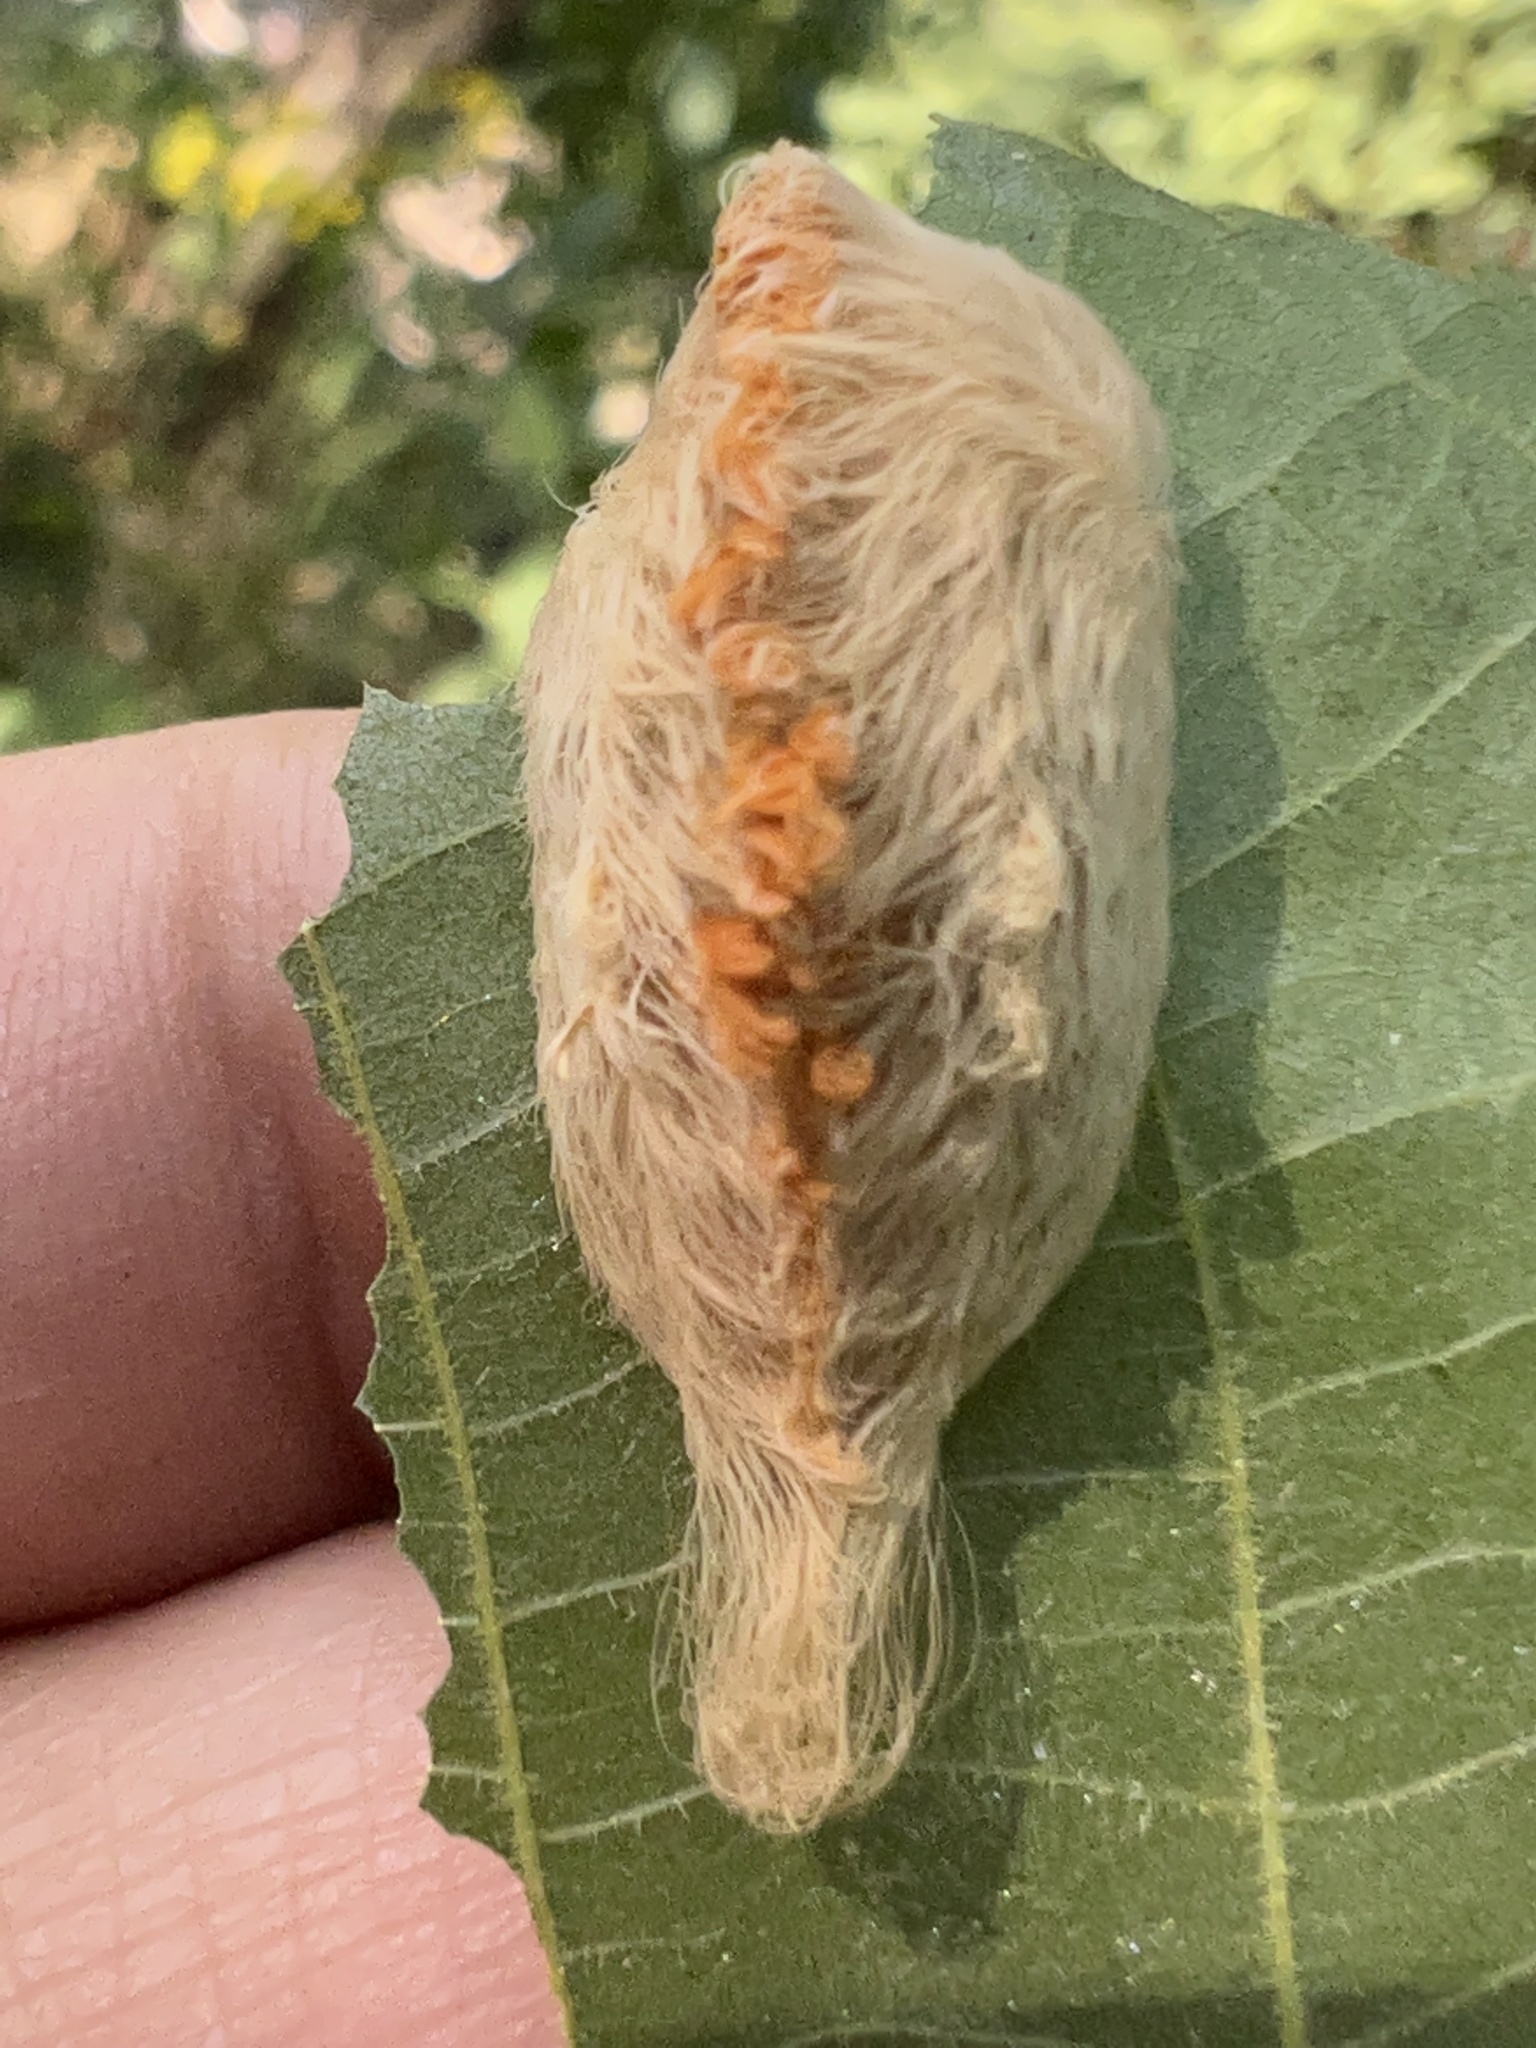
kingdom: Animalia
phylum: Arthropoda
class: Insecta
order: Lepidoptera
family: Megalopygidae
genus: Megalopyge
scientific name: Megalopyge opercularis
